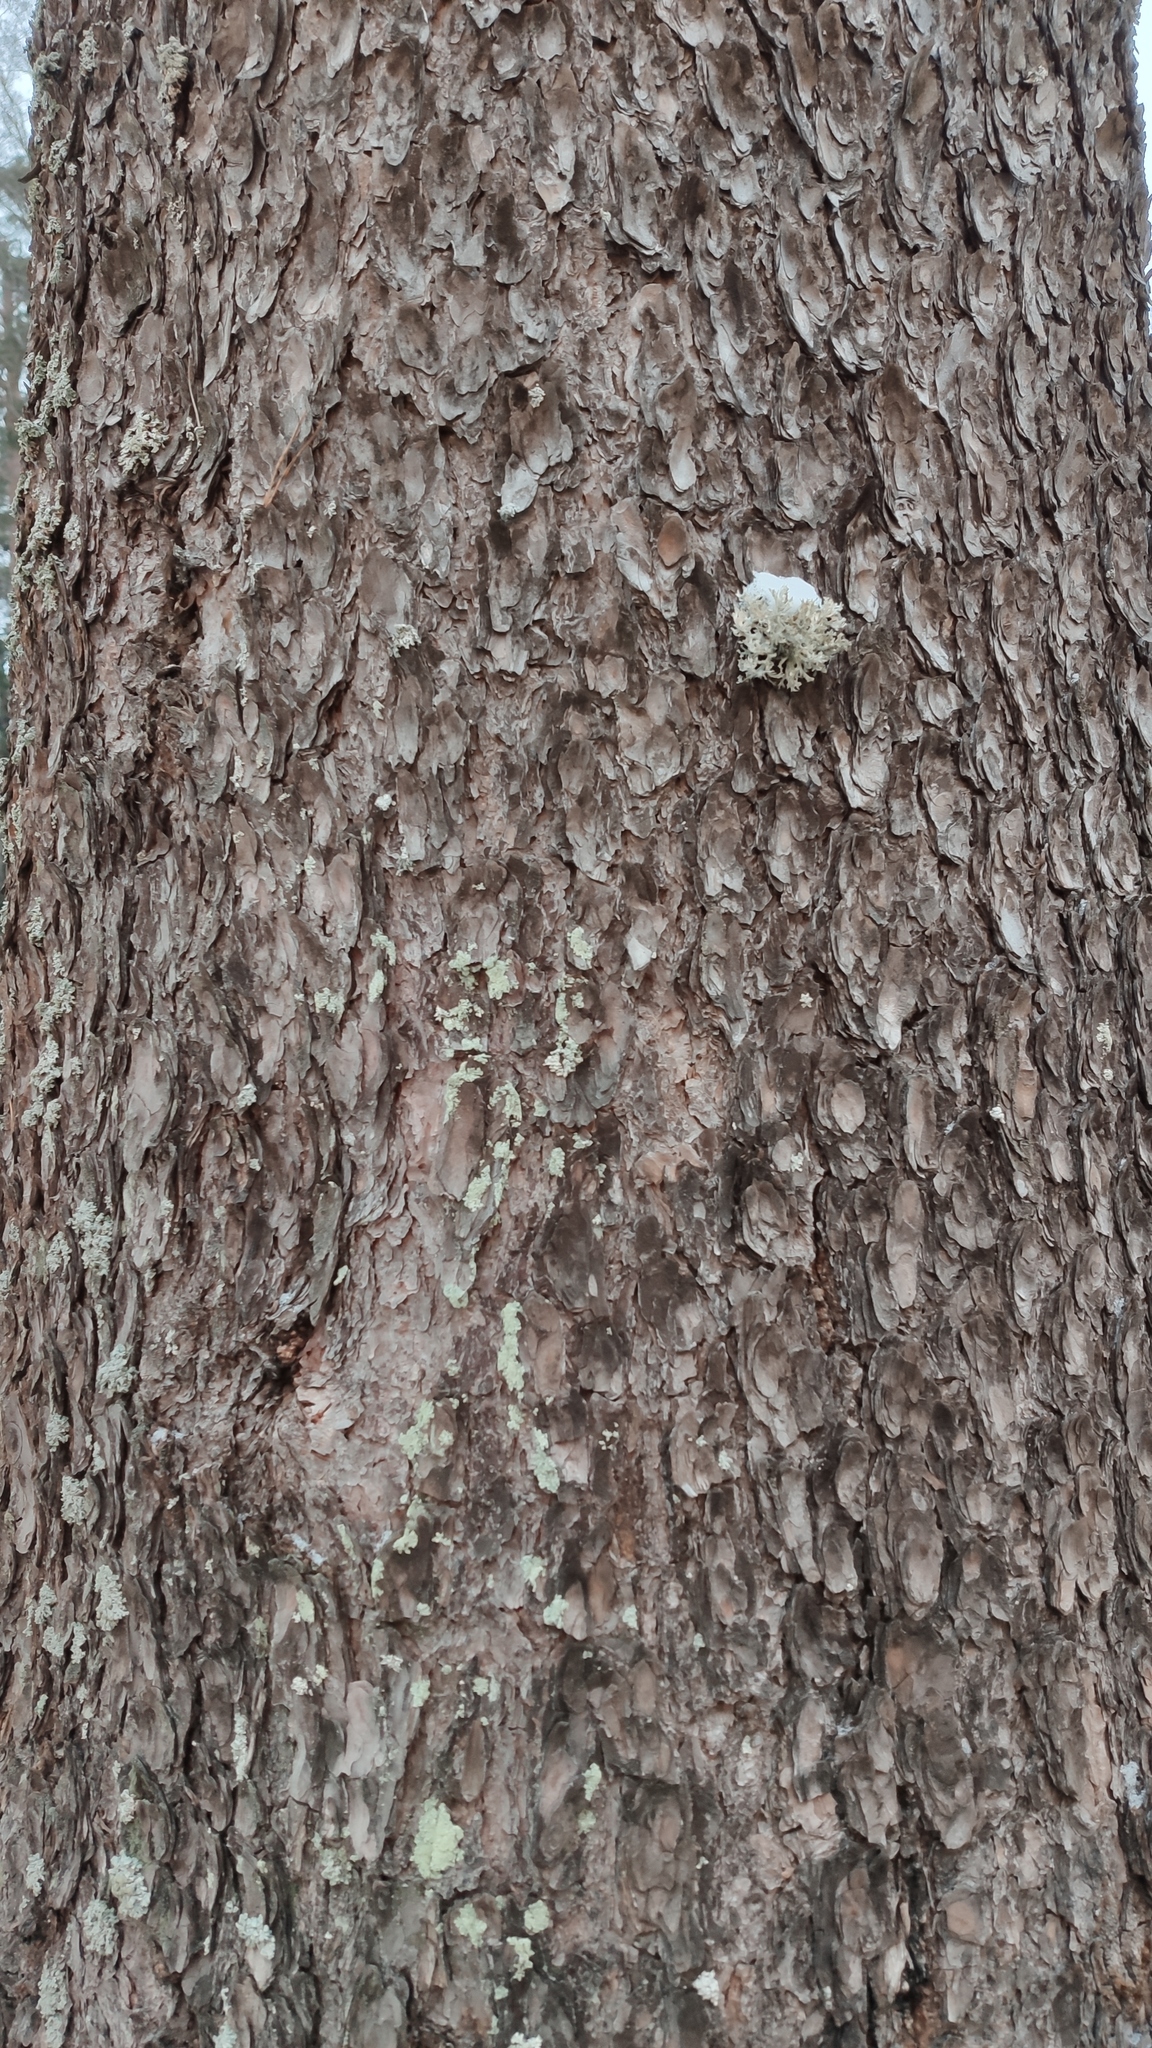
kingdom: Plantae
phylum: Tracheophyta
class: Pinopsida
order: Pinales
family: Pinaceae
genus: Pinus
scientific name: Pinus sylvestris
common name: Scots pine
